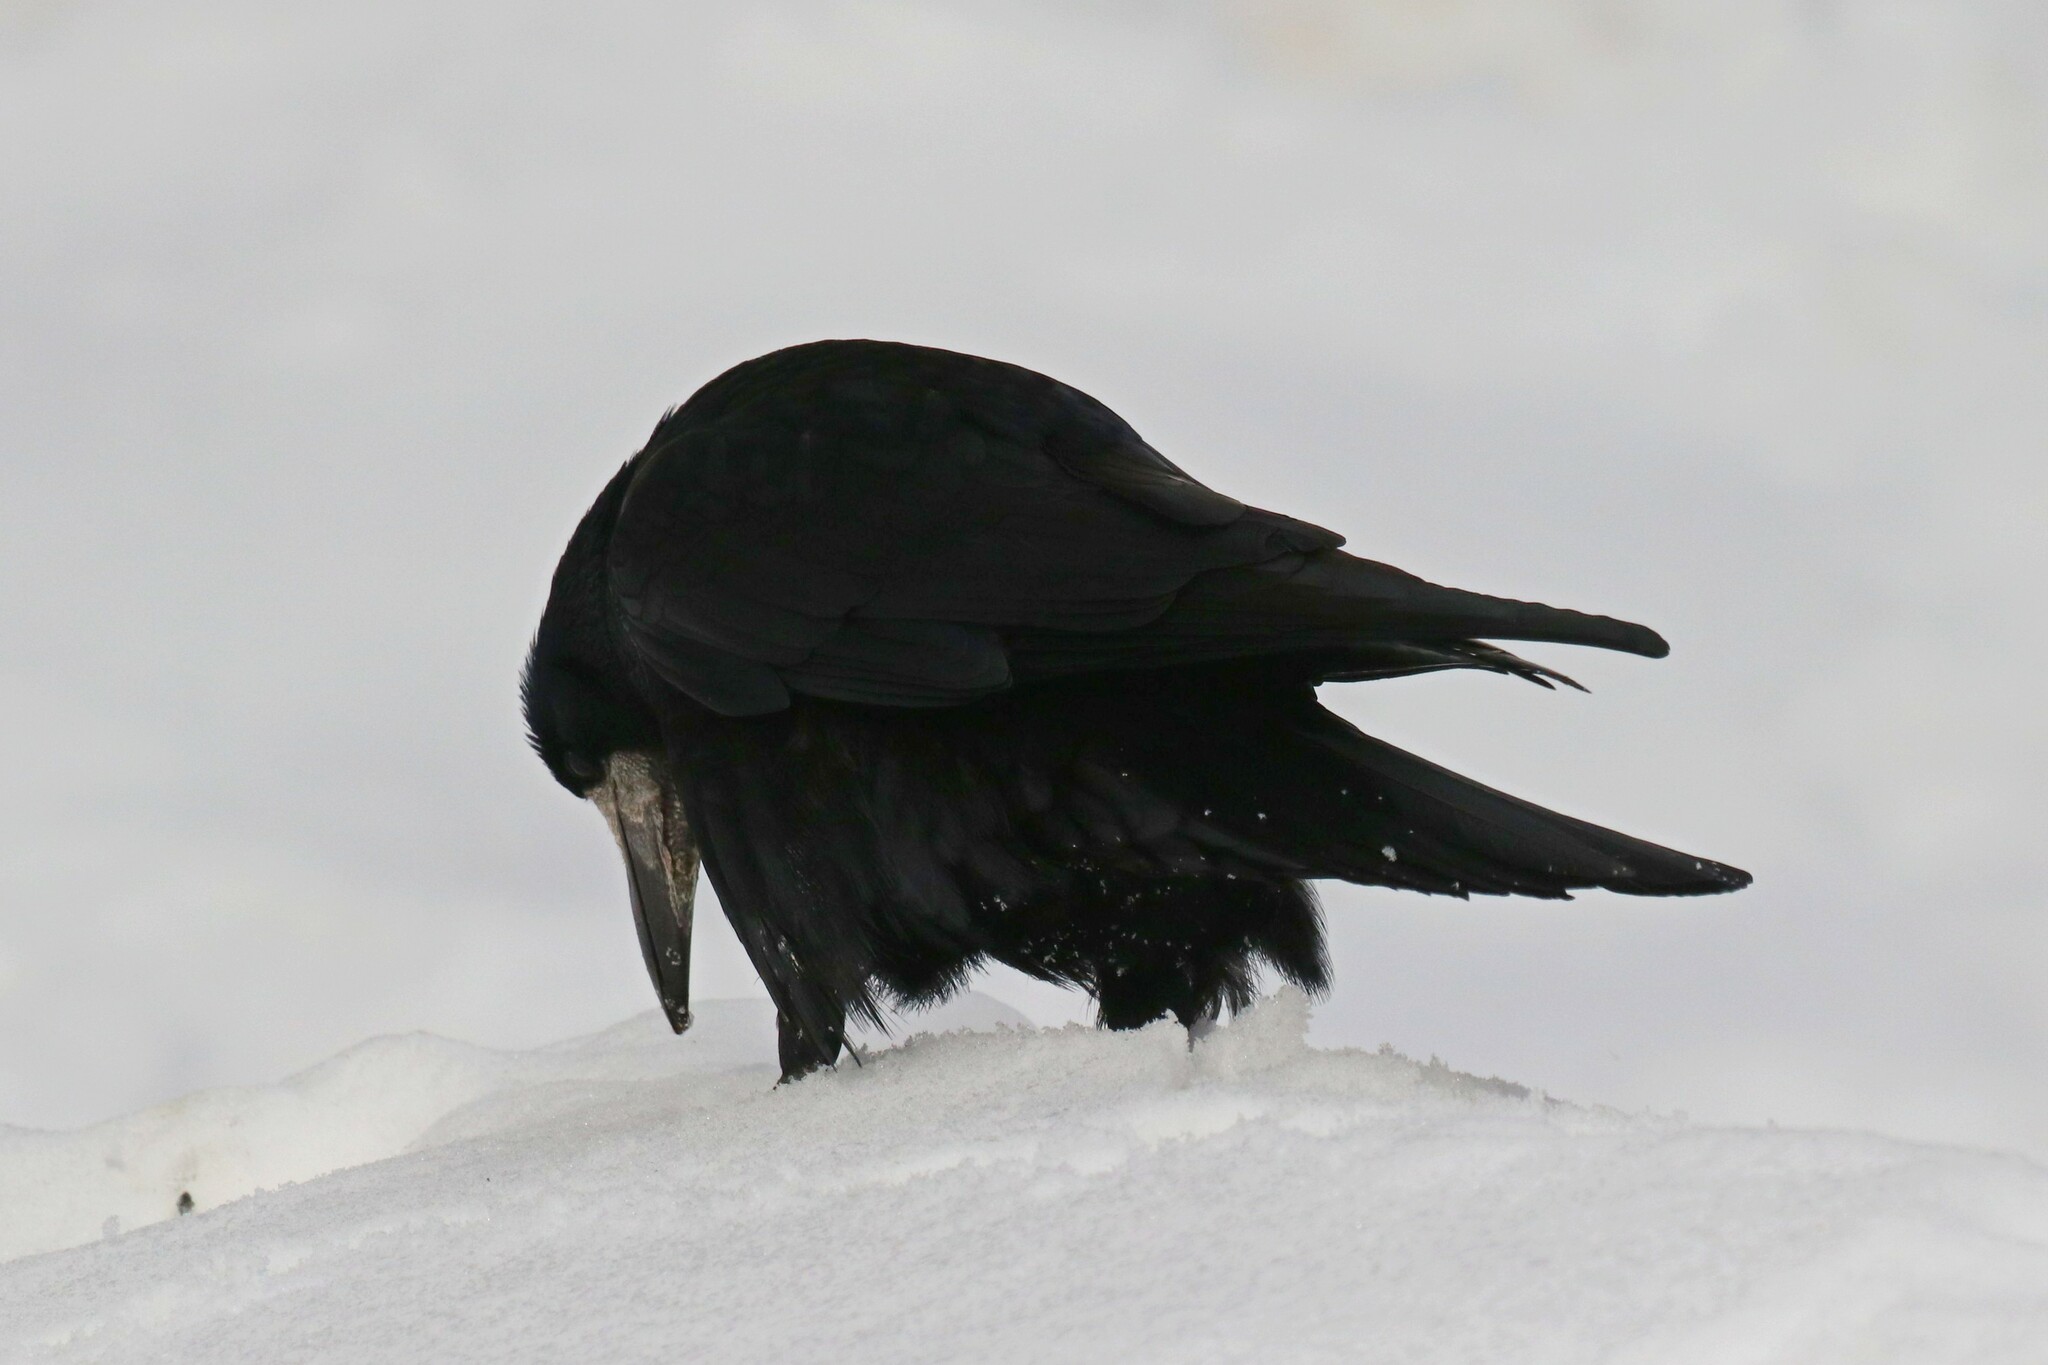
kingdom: Animalia
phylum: Chordata
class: Aves
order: Passeriformes
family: Corvidae
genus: Corvus
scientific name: Corvus frugilegus
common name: Rook
